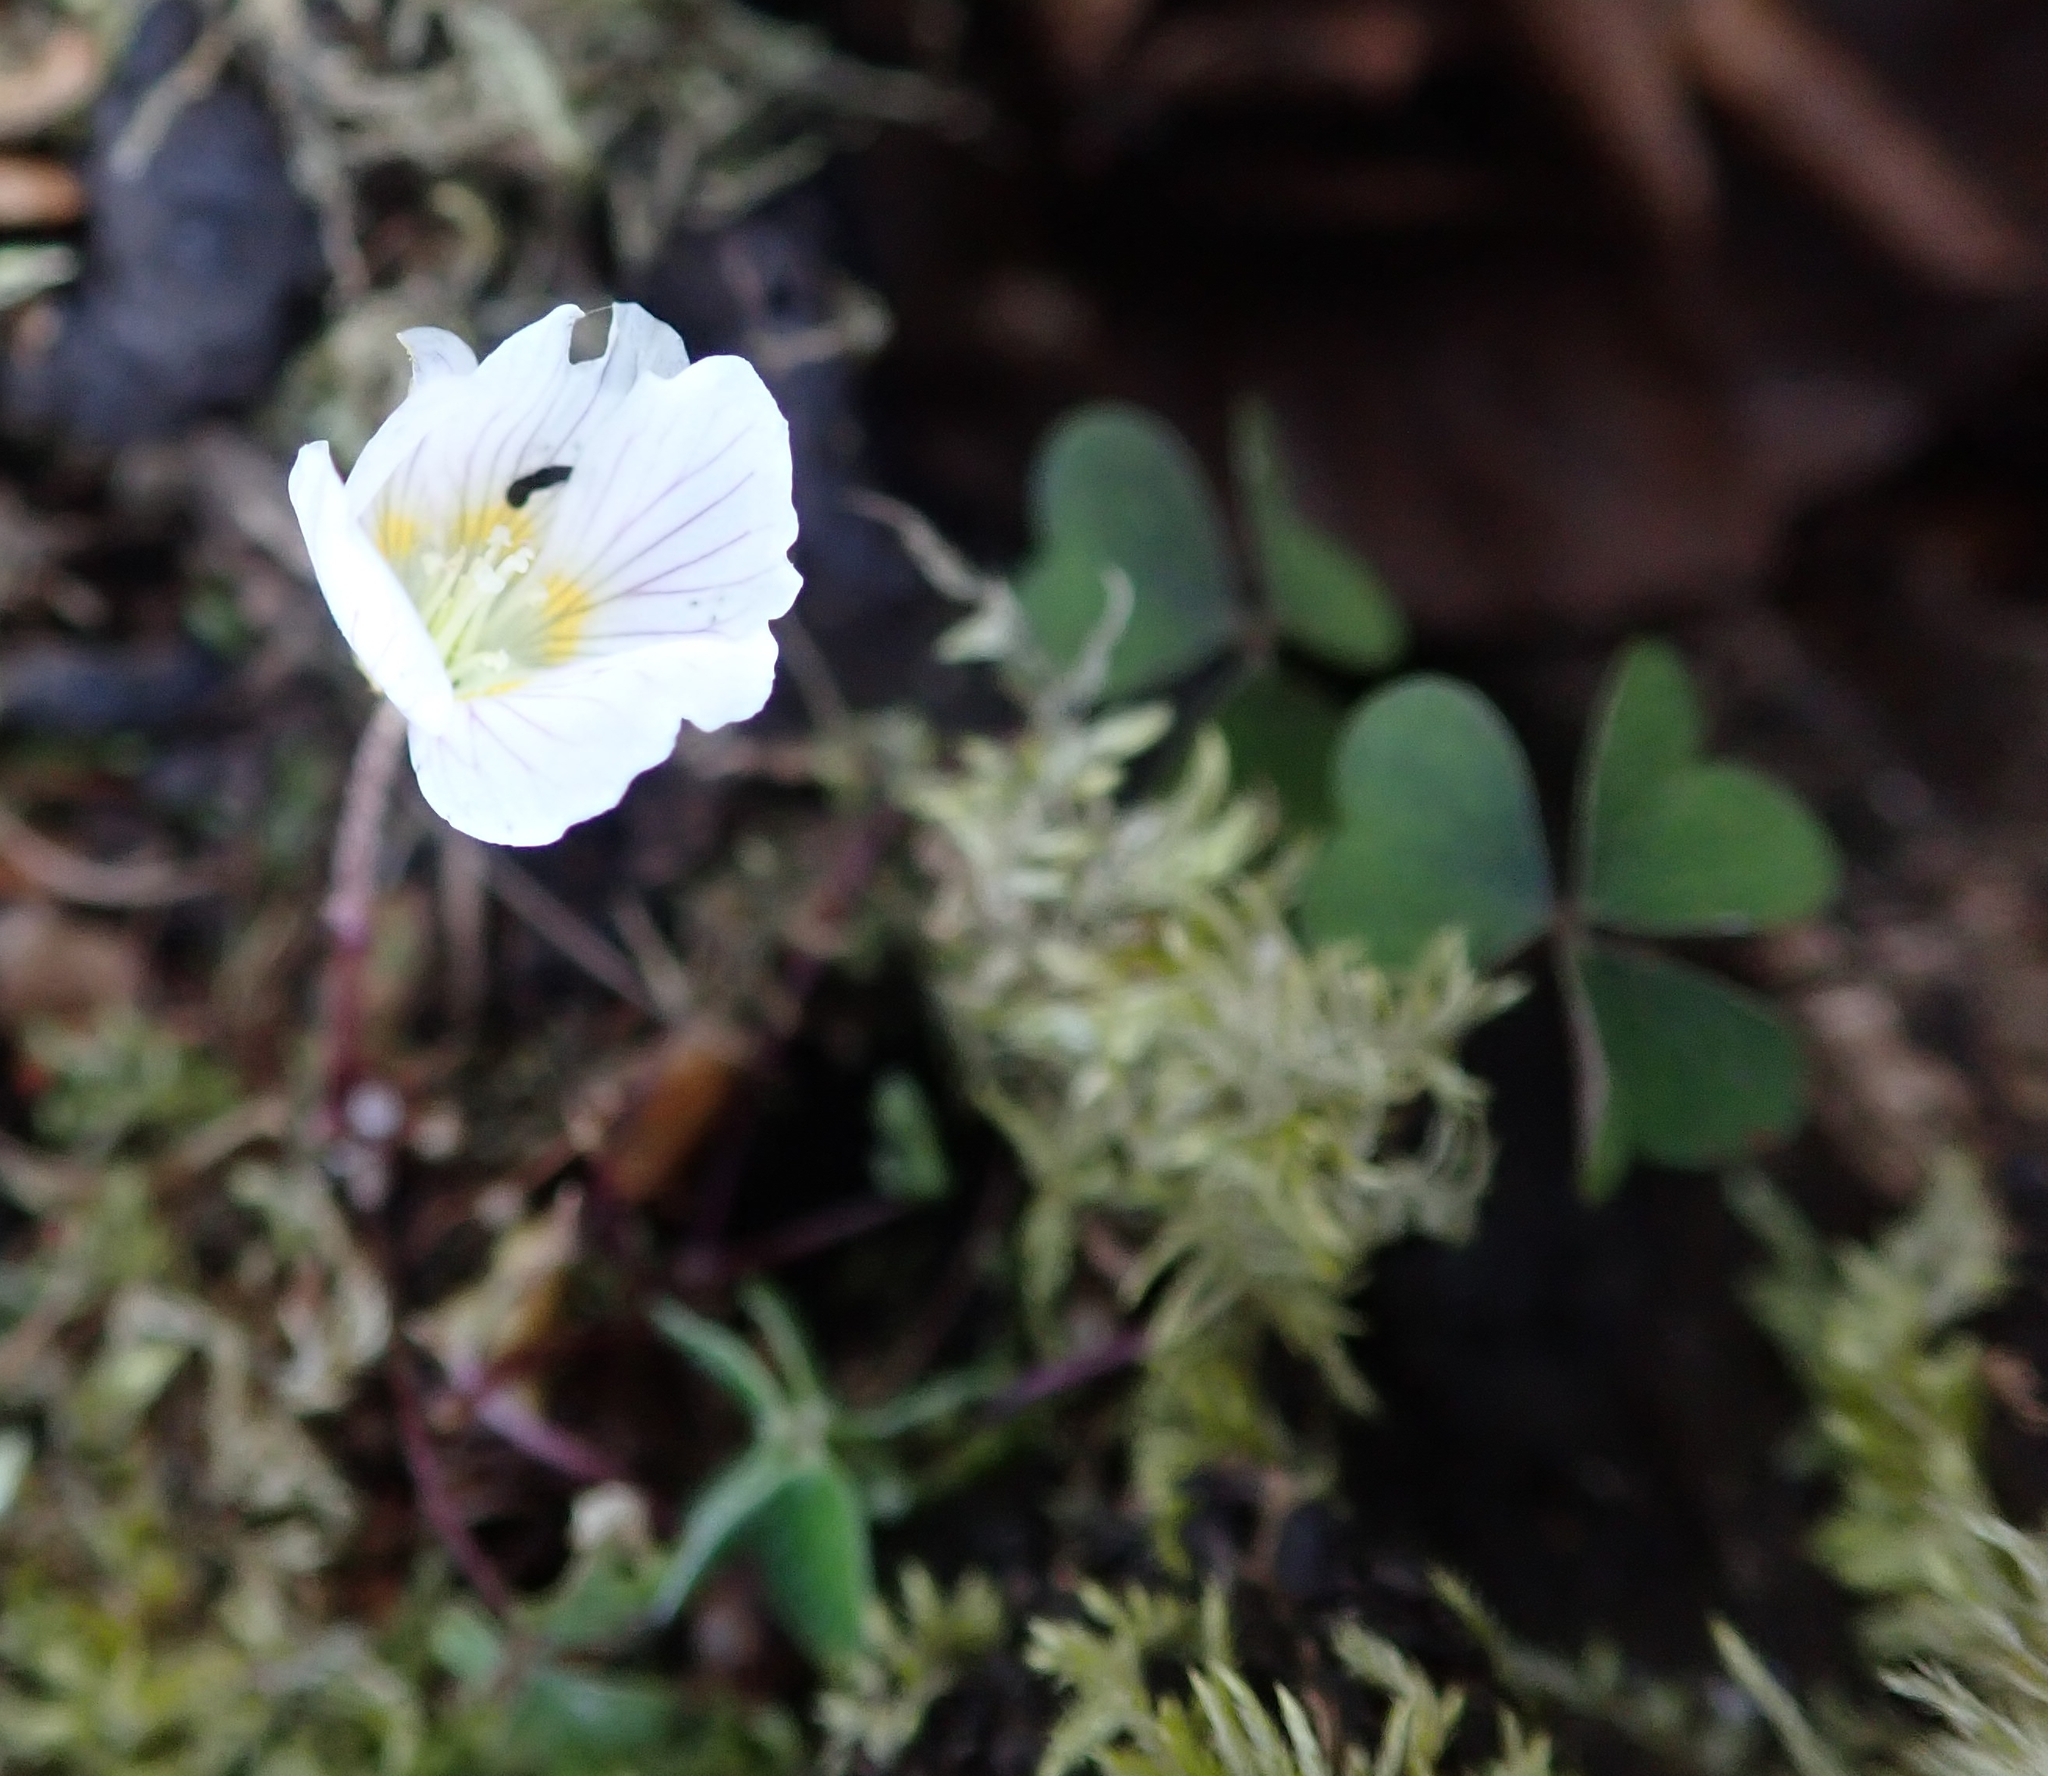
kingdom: Plantae
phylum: Tracheophyta
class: Magnoliopsida
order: Oxalidales
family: Oxalidaceae
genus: Oxalis
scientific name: Oxalis acetosella
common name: Wood-sorrel
